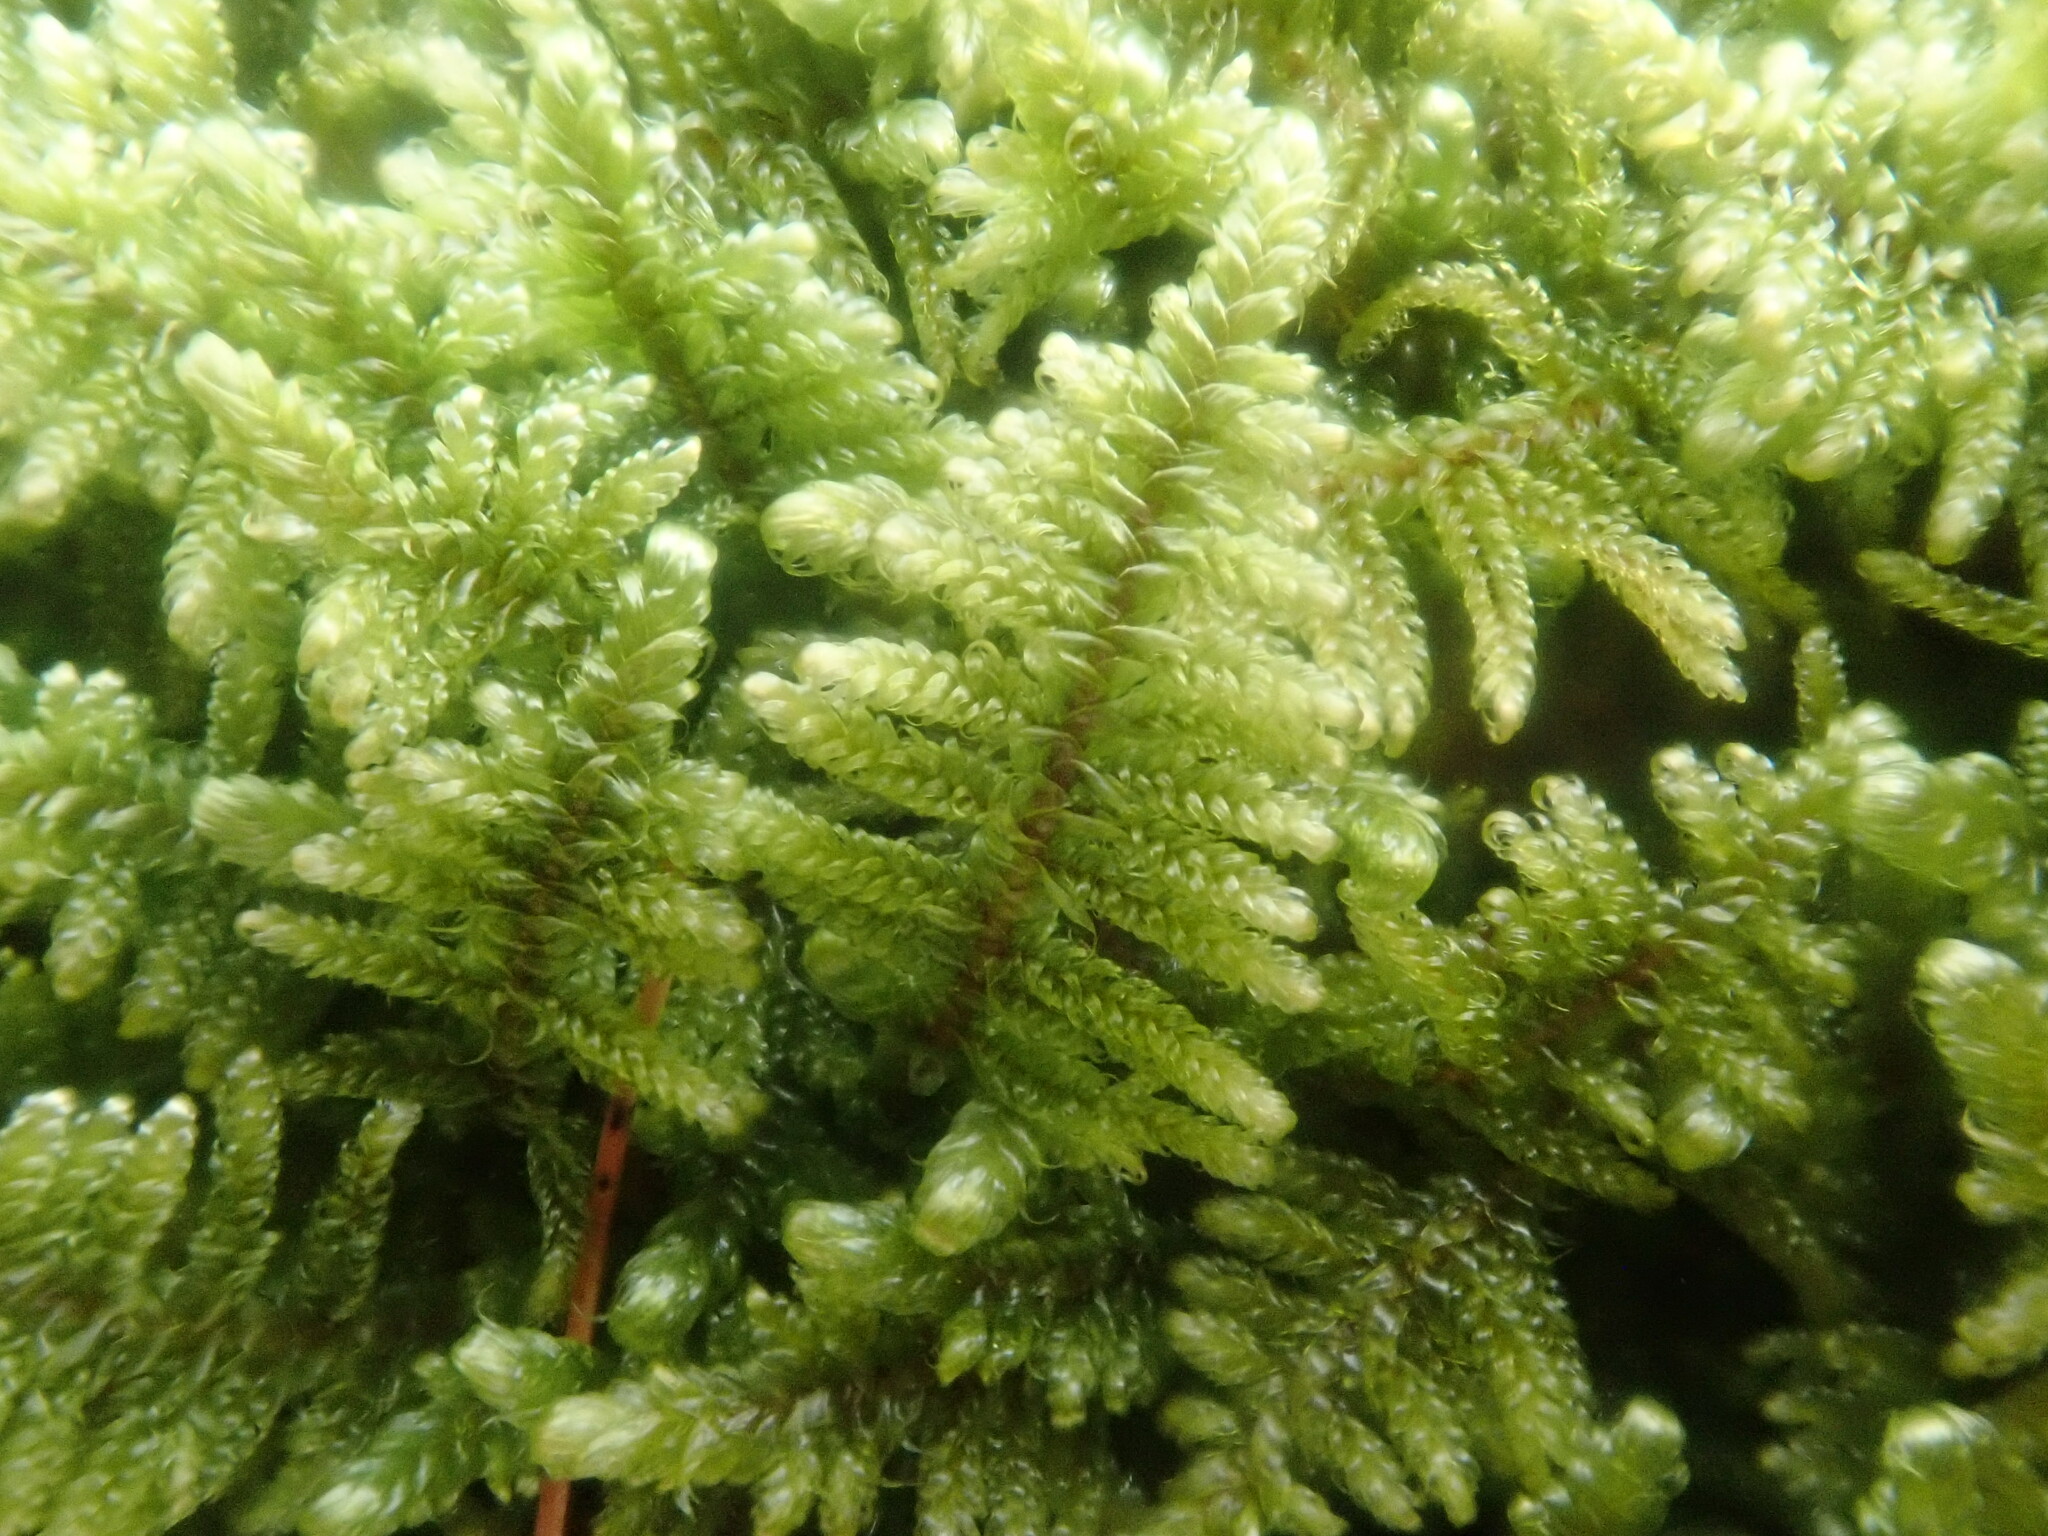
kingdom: Plantae
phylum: Bryophyta
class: Bryopsida
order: Hypnales
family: Callicladiaceae
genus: Callicladium
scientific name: Callicladium imponens
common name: Brocade moss
